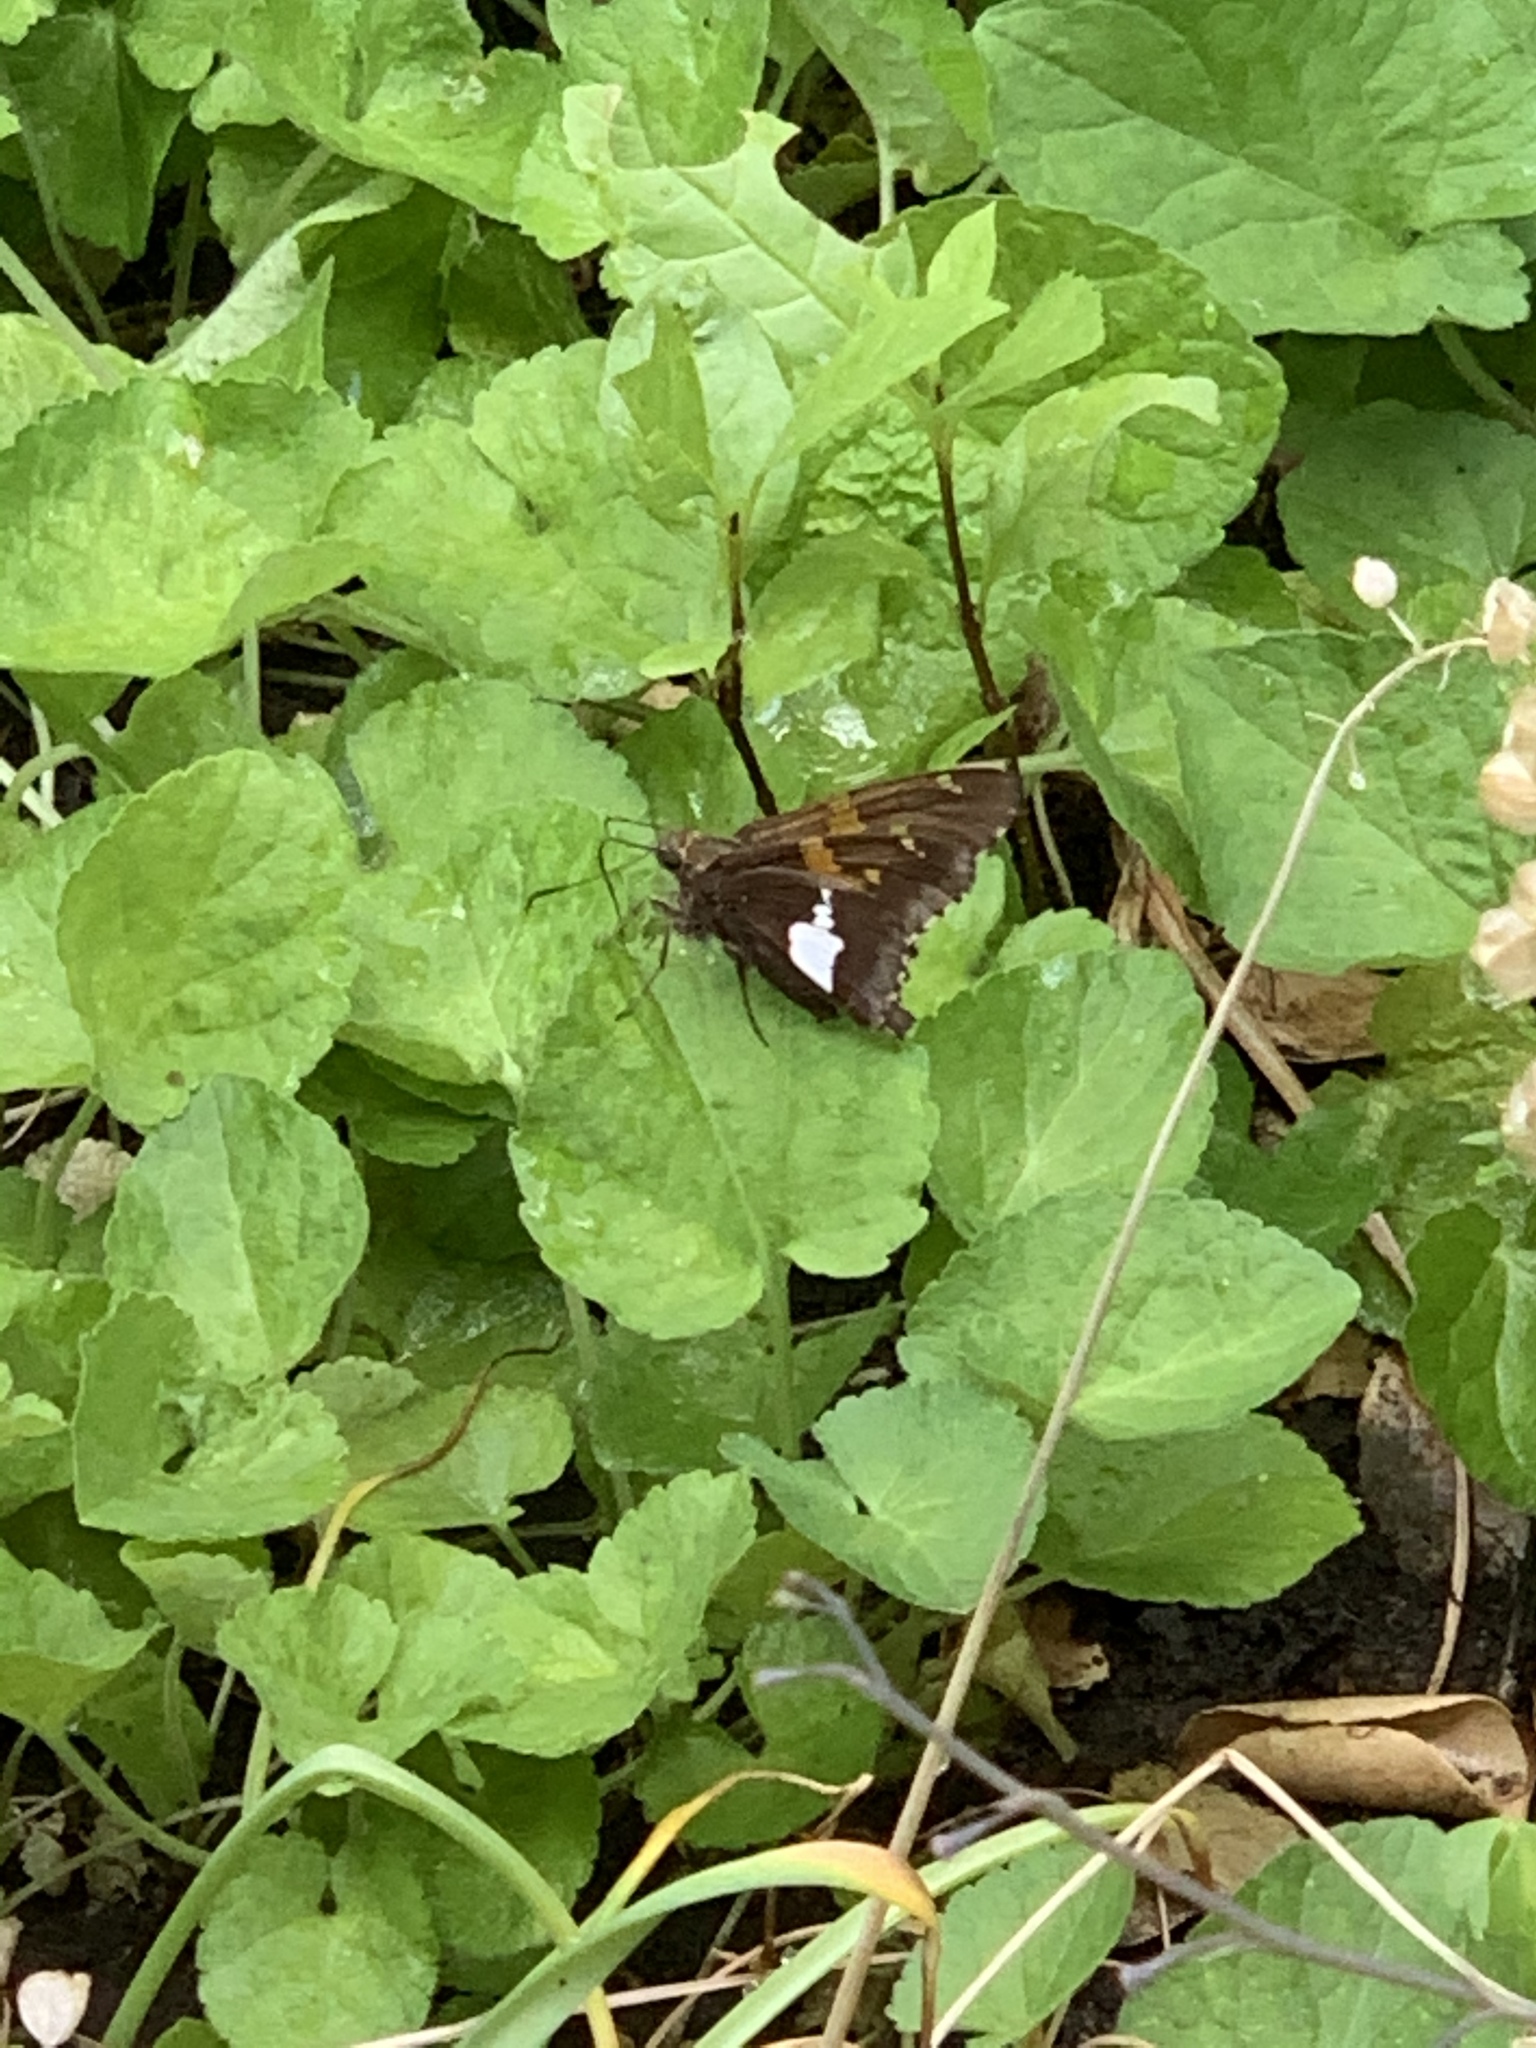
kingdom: Animalia
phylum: Arthropoda
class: Insecta
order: Lepidoptera
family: Hesperiidae
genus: Epargyreus
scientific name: Epargyreus clarus
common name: Silver-spotted skipper
